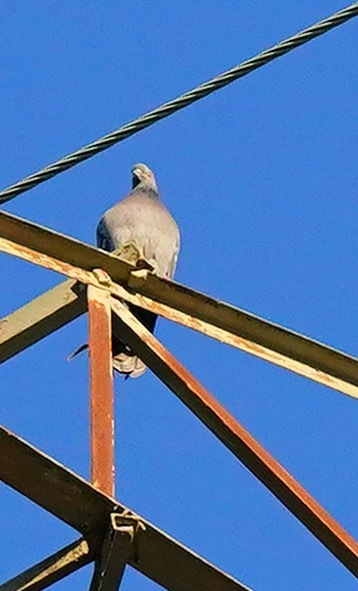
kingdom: Animalia
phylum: Chordata
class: Aves
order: Columbiformes
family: Columbidae
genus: Patagioenas
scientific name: Patagioenas fasciata
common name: Band-tailed pigeon
